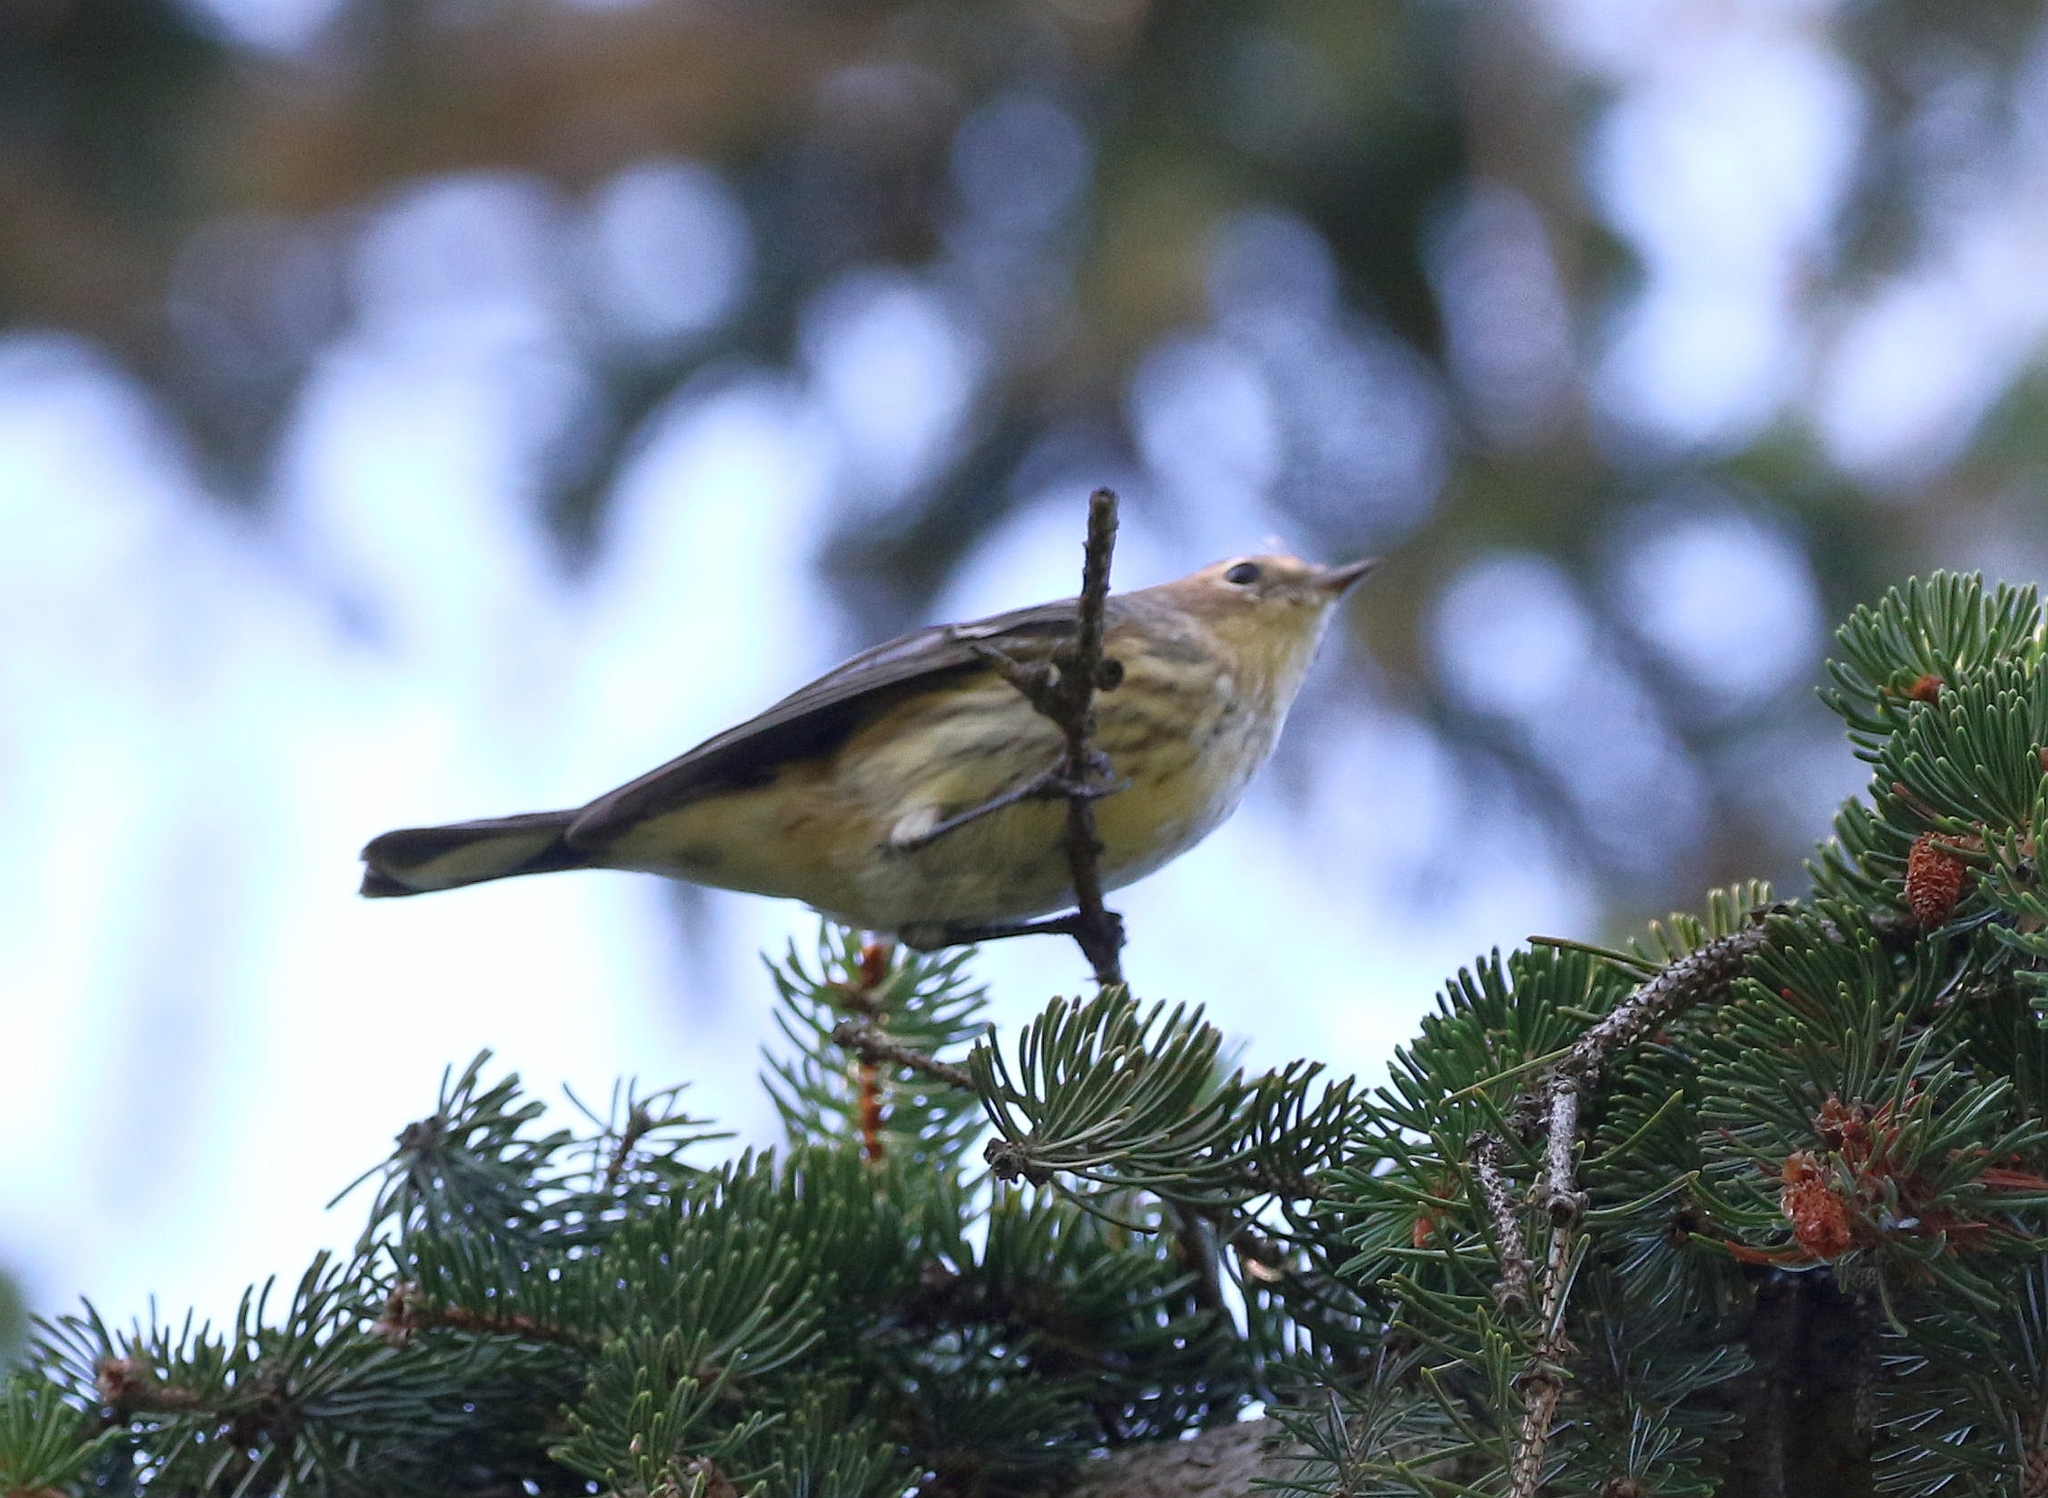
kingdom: Animalia
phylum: Chordata
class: Aves
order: Passeriformes
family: Parulidae
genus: Setophaga
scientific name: Setophaga coronata
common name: Myrtle warbler
